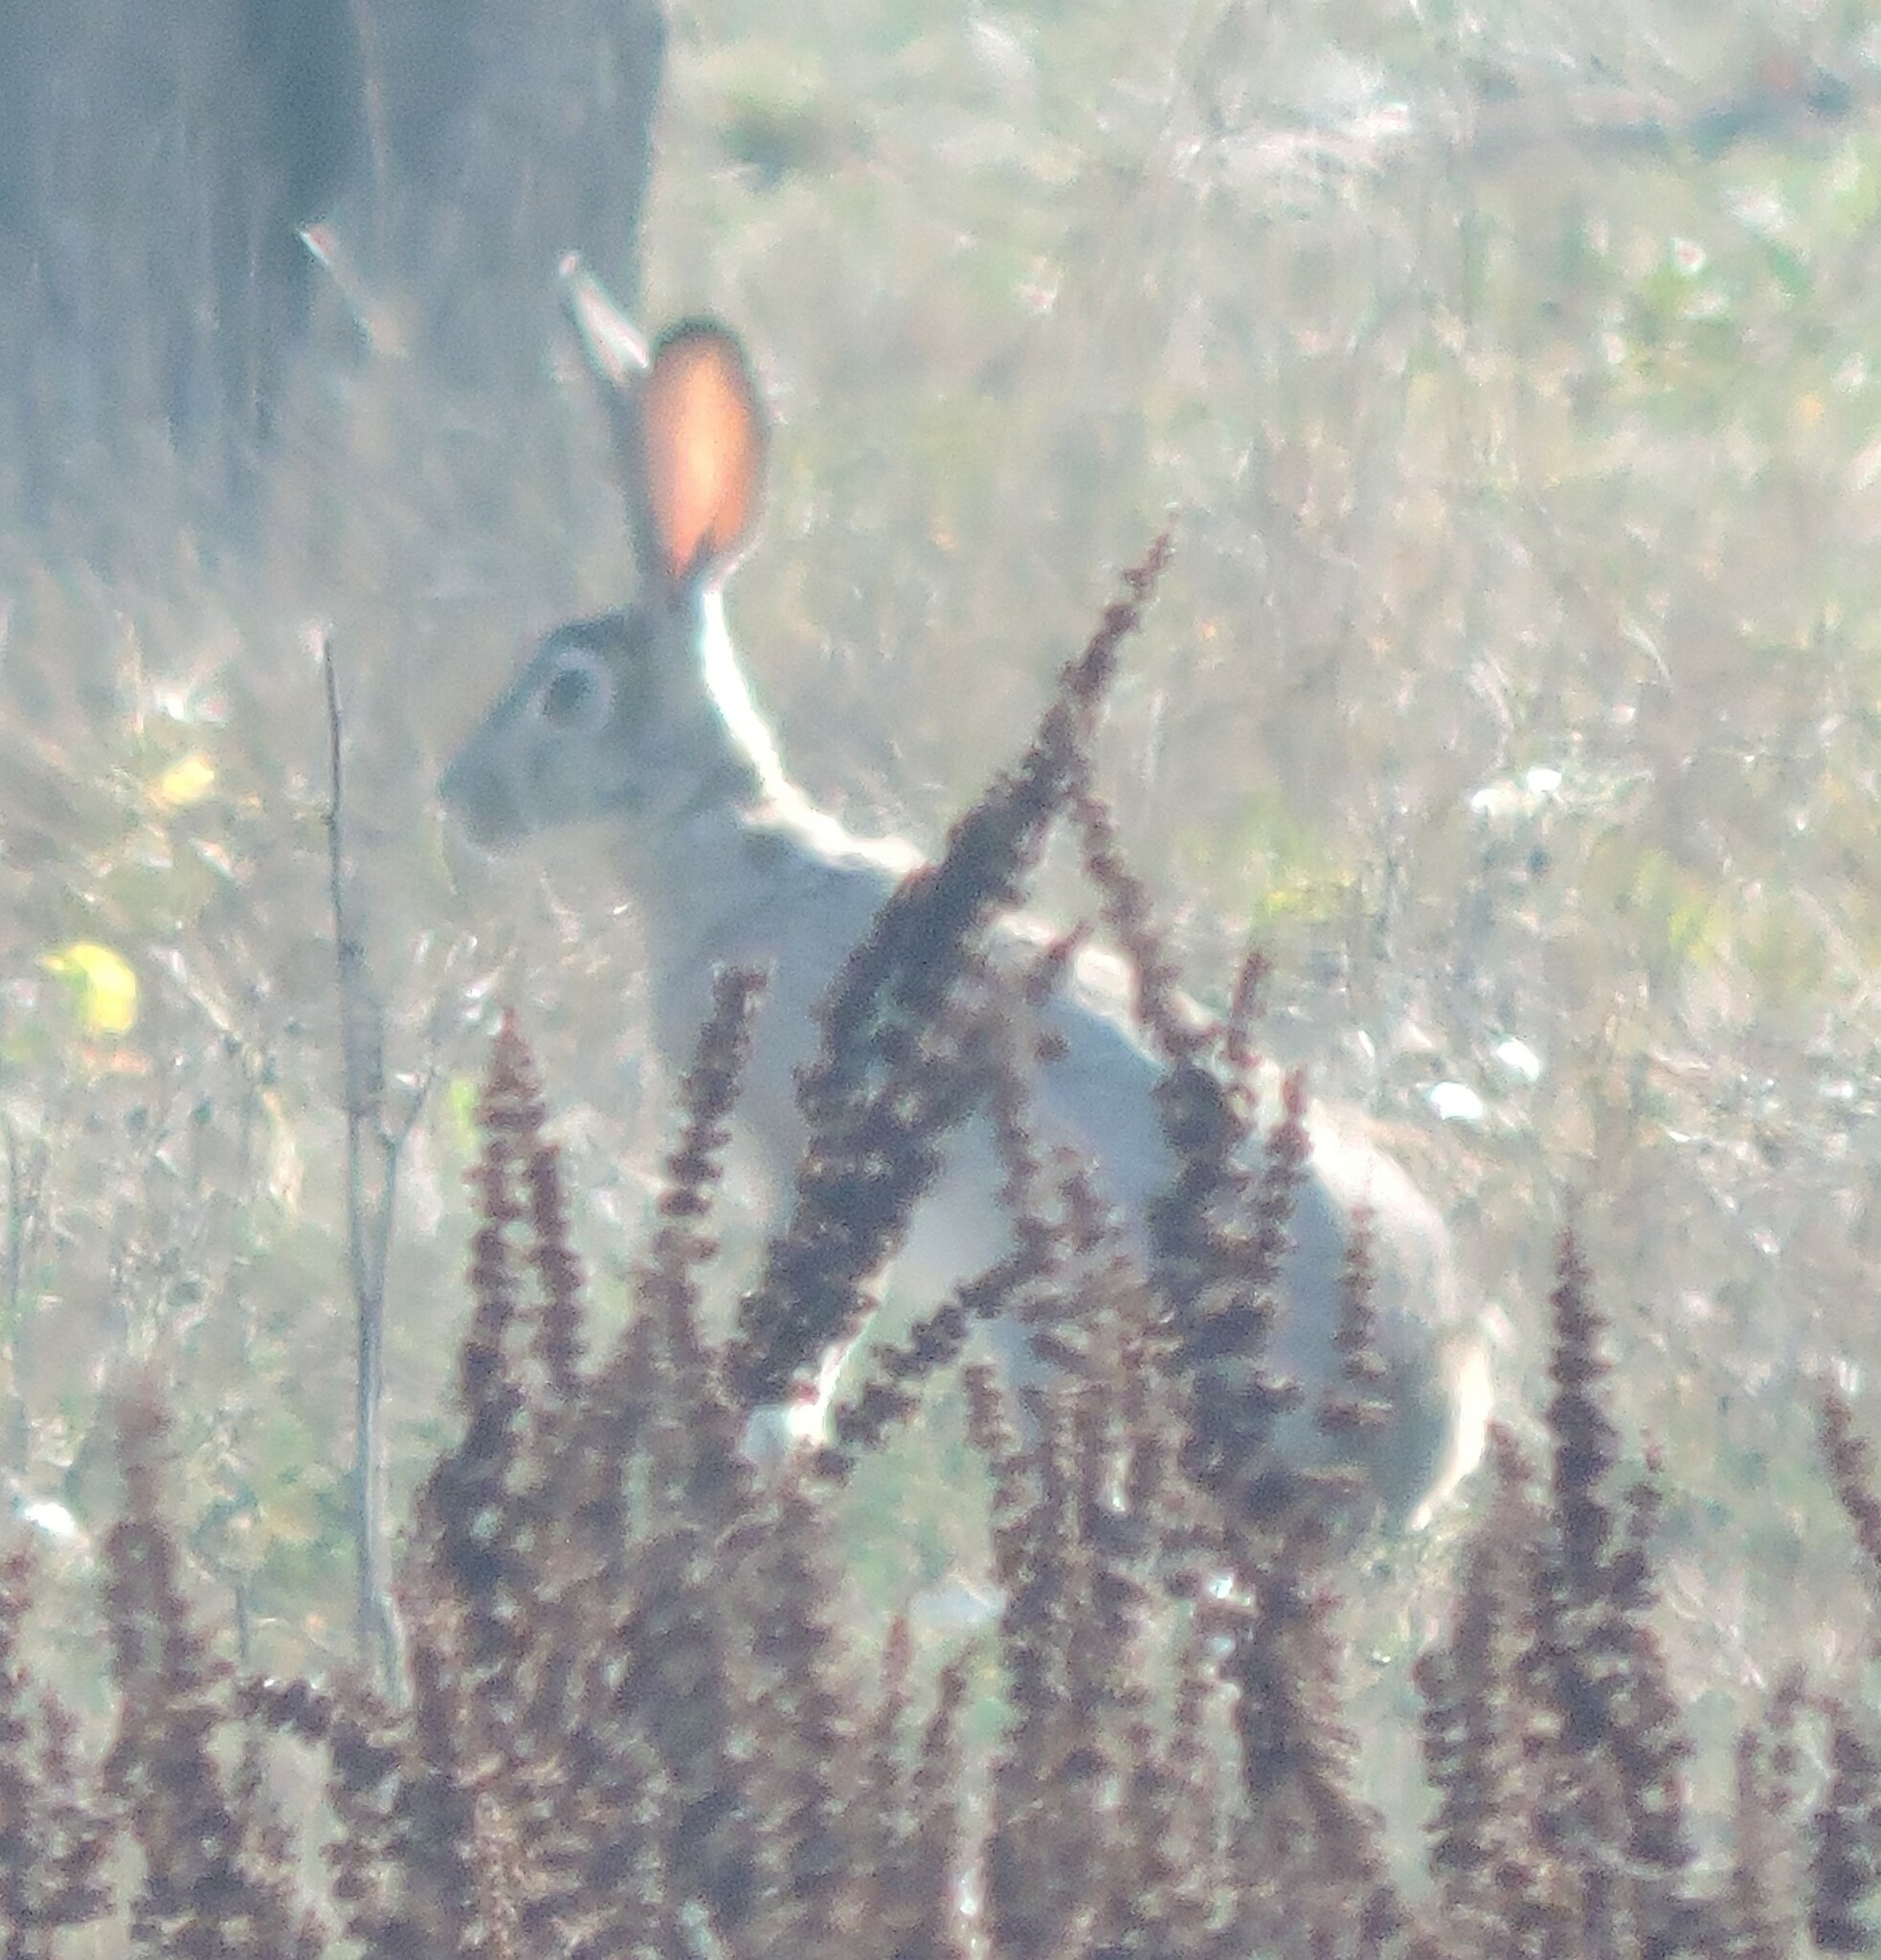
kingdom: Animalia
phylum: Chordata
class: Mammalia
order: Lagomorpha
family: Leporidae
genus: Lepus
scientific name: Lepus californicus
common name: Black-tailed jackrabbit
